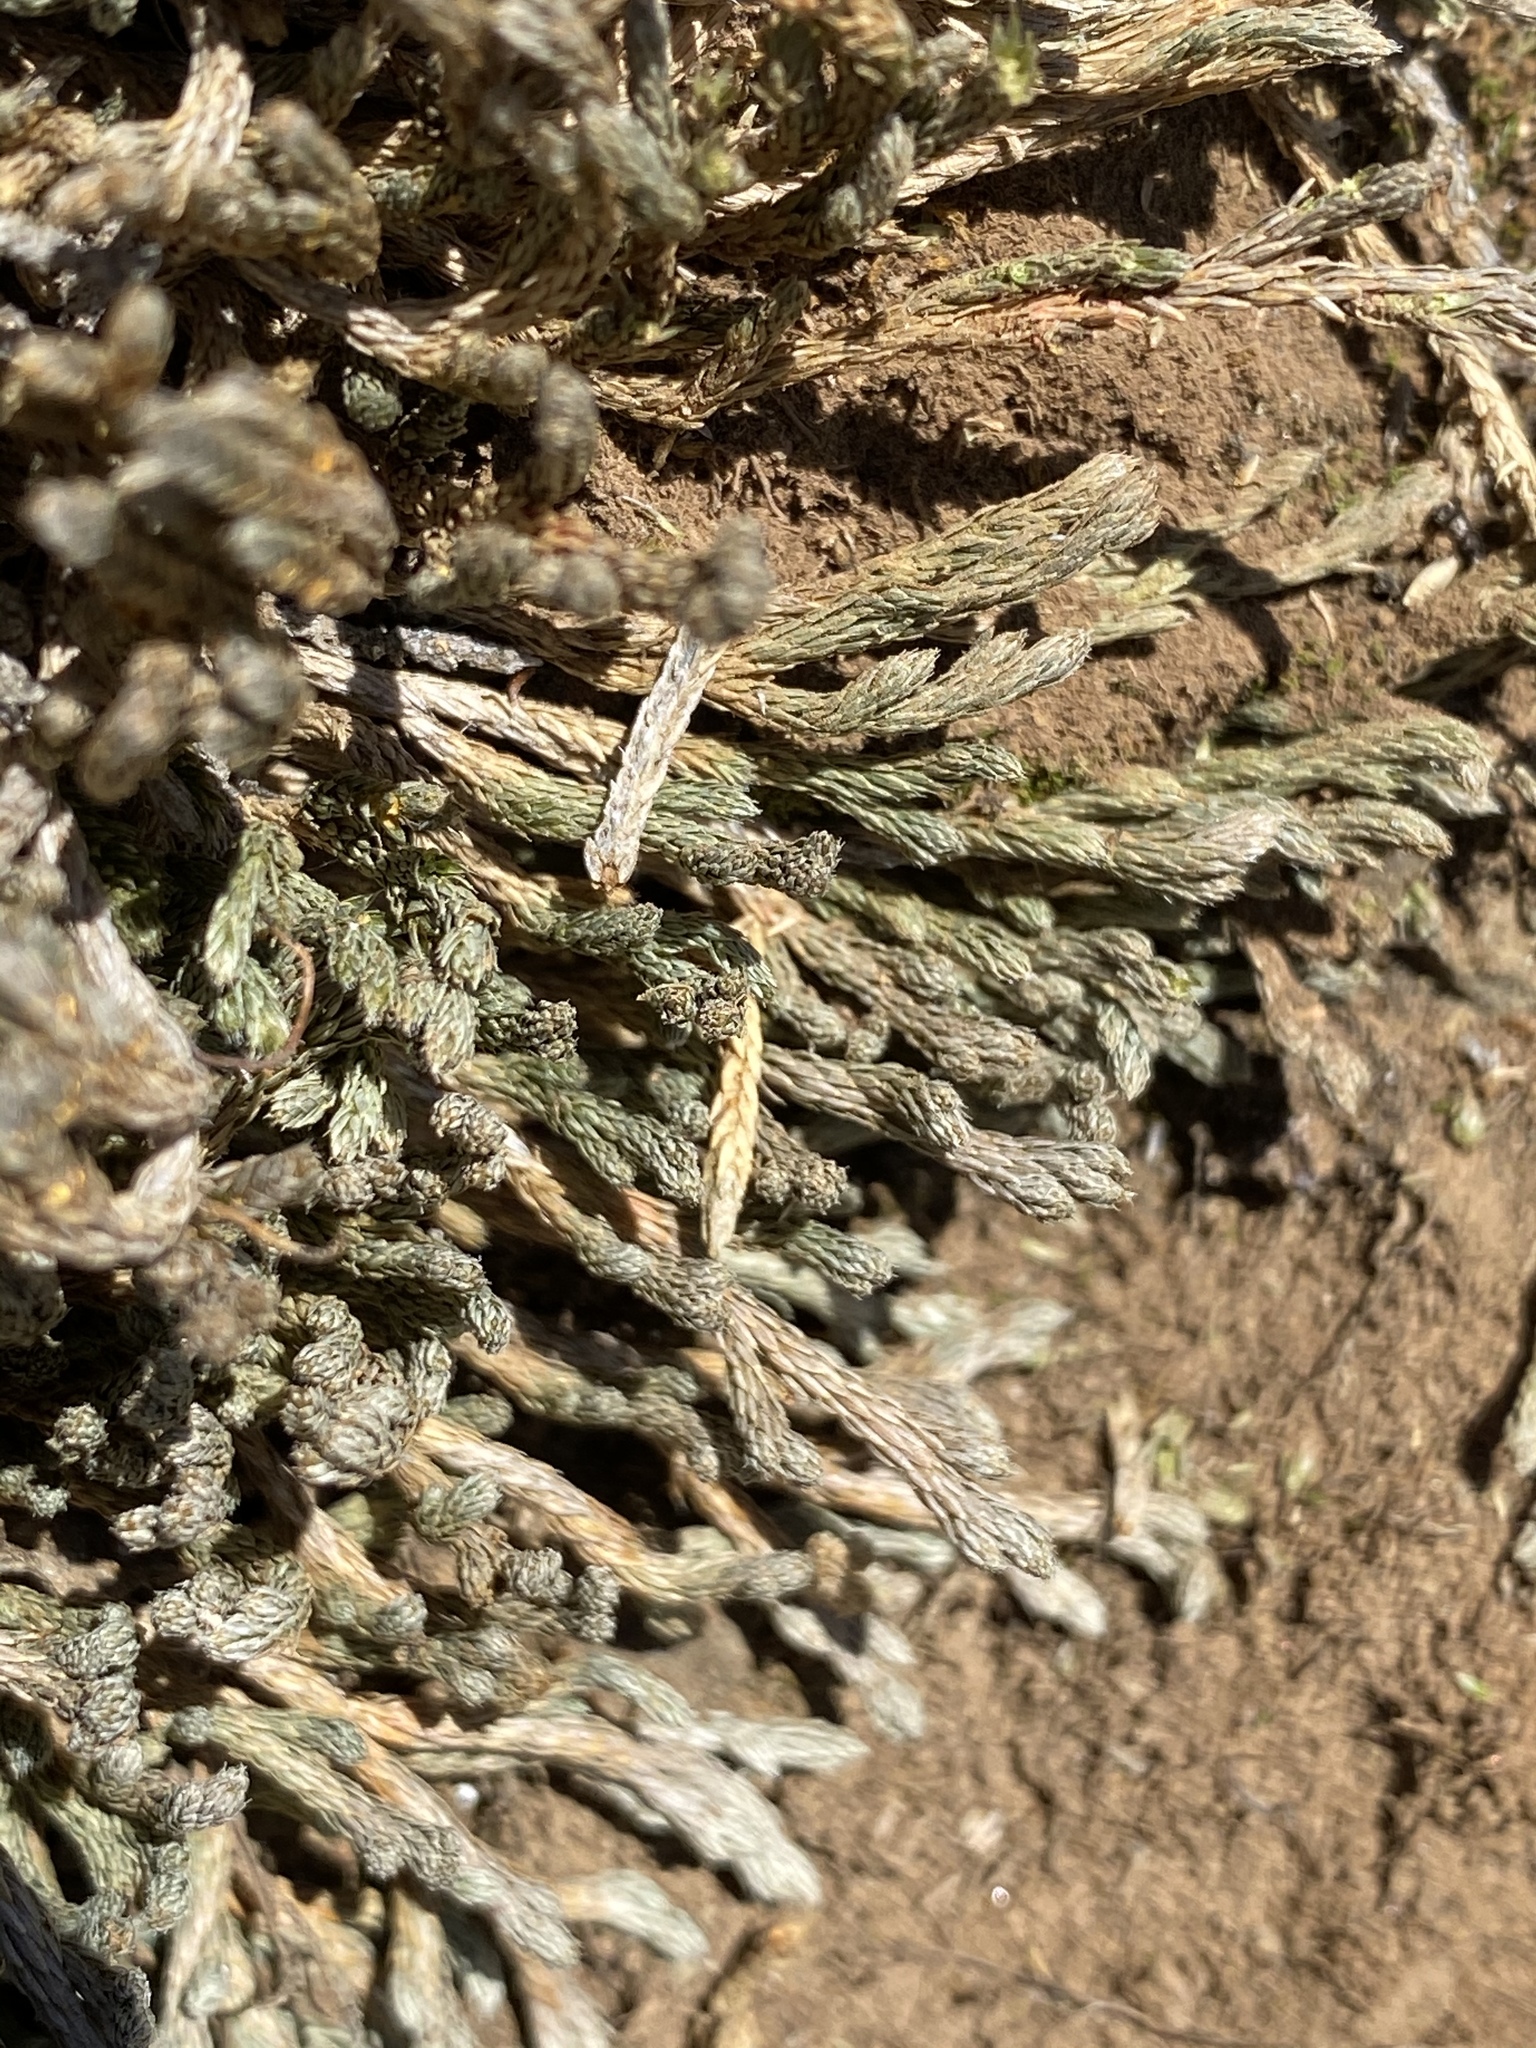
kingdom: Plantae
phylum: Tracheophyta
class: Lycopodiopsida
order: Selaginellales
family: Selaginellaceae
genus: Selaginella
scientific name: Selaginella wallacei
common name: Wallace's selaginella
